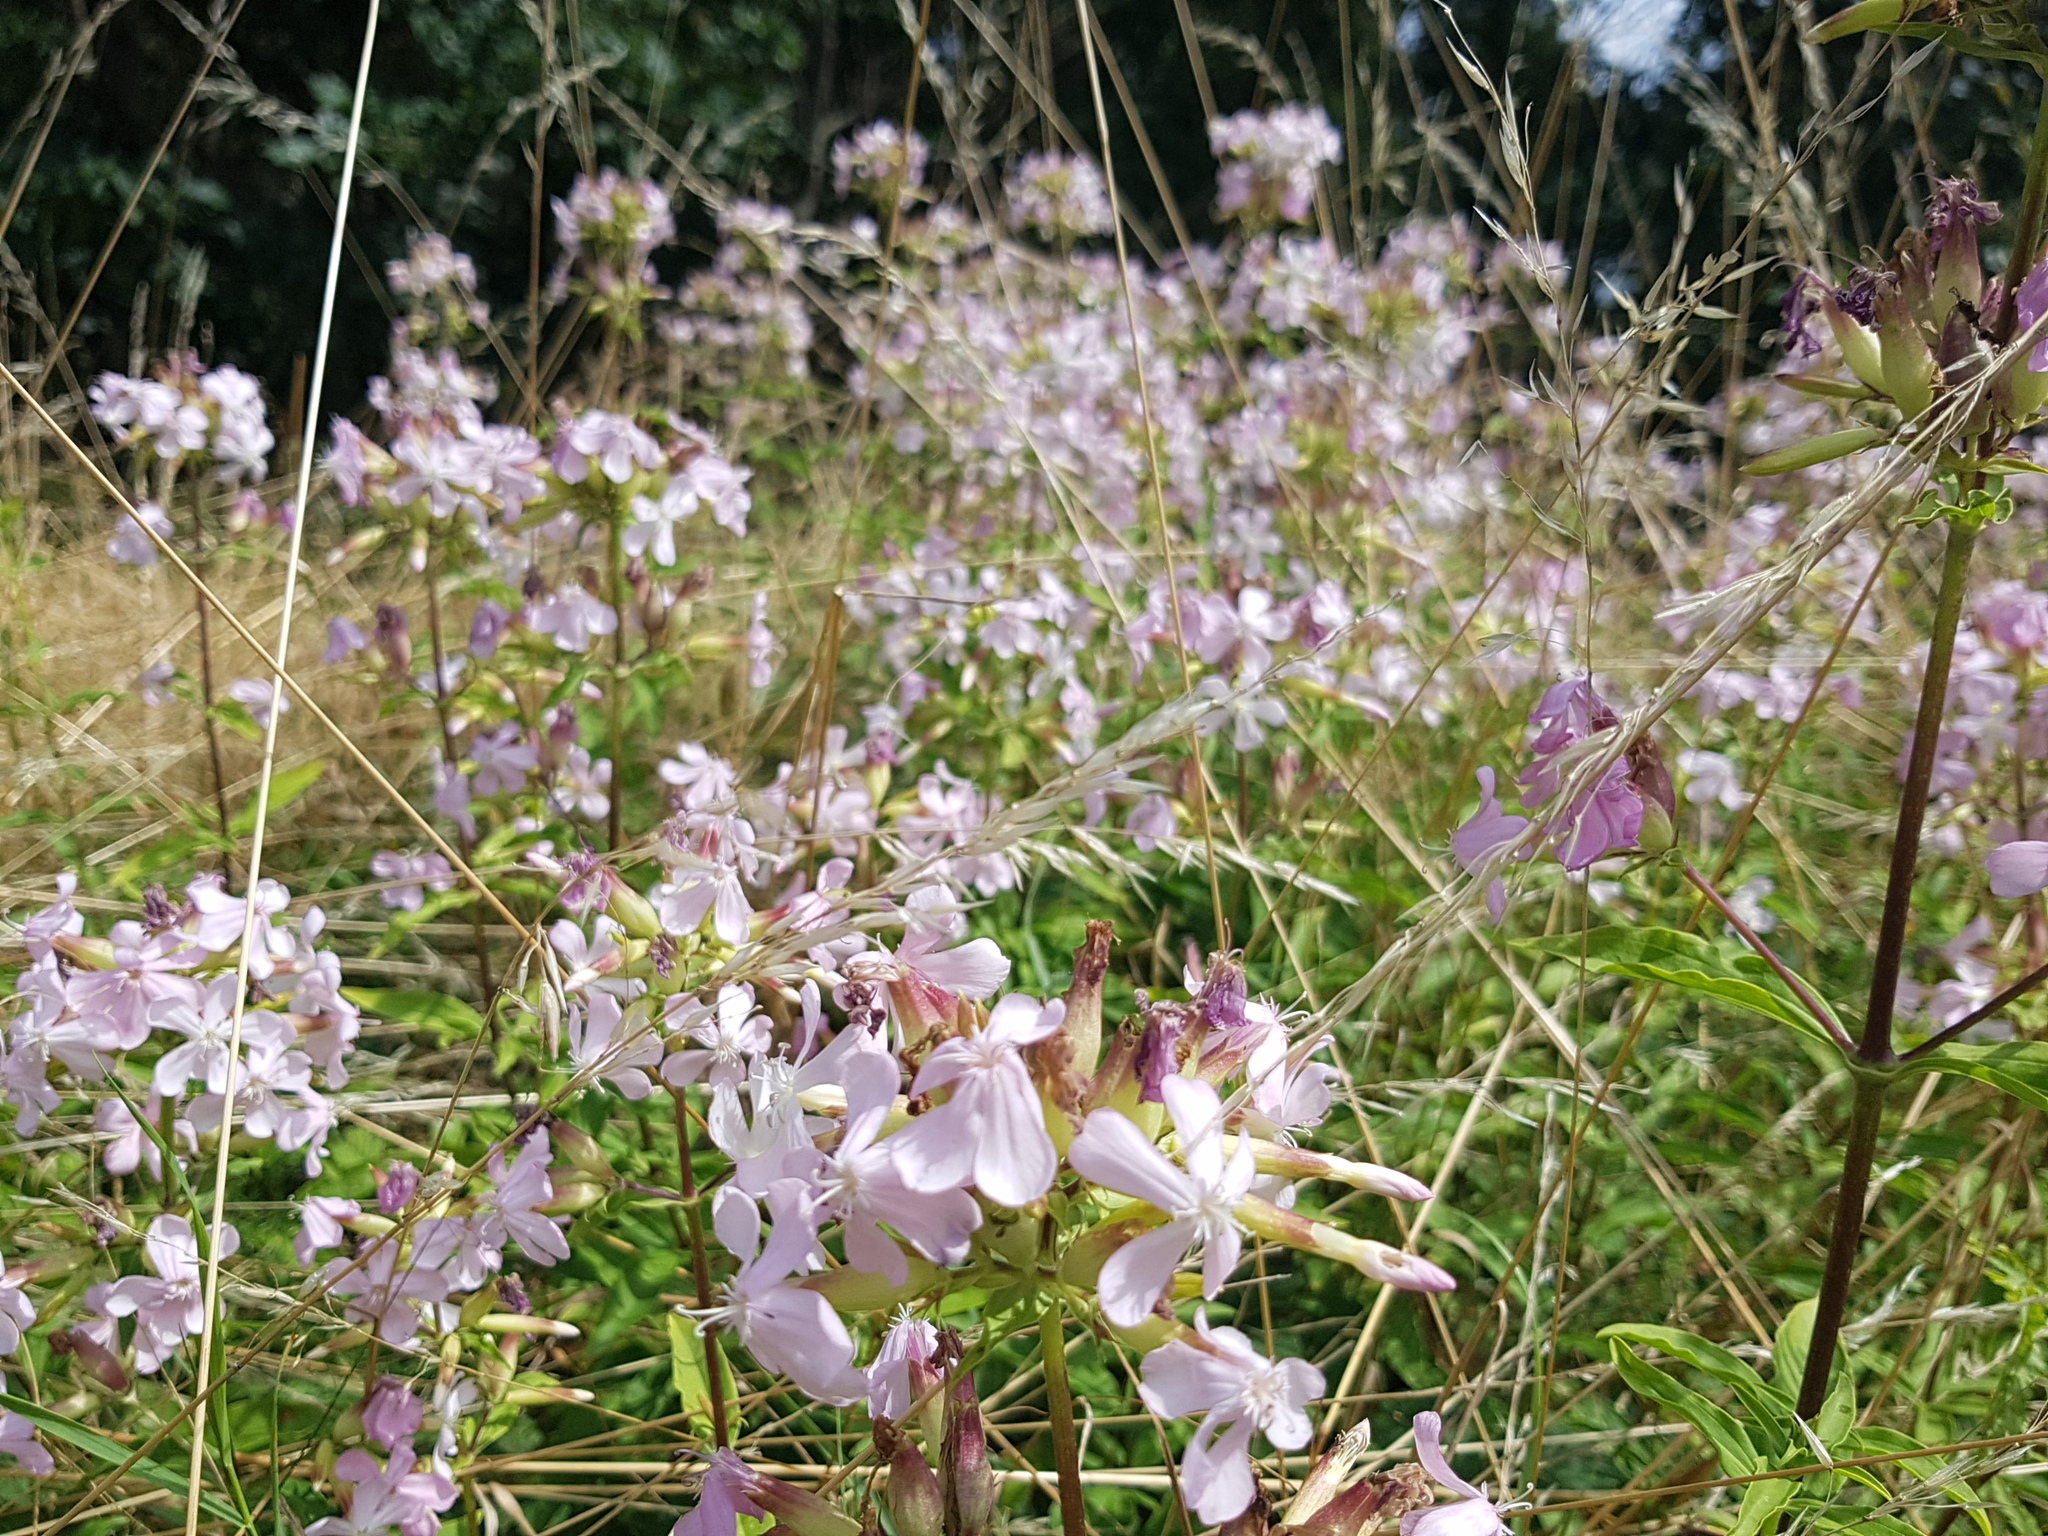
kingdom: Plantae
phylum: Tracheophyta
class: Magnoliopsida
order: Caryophyllales
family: Caryophyllaceae
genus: Saponaria
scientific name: Saponaria officinalis
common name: Soapwort
